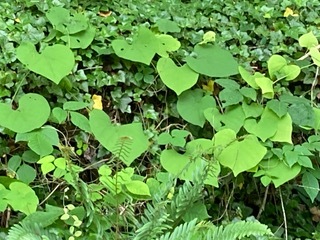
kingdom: Plantae
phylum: Tracheophyta
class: Magnoliopsida
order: Piperales
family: Aristolochiaceae
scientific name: Aristolochiaceae
